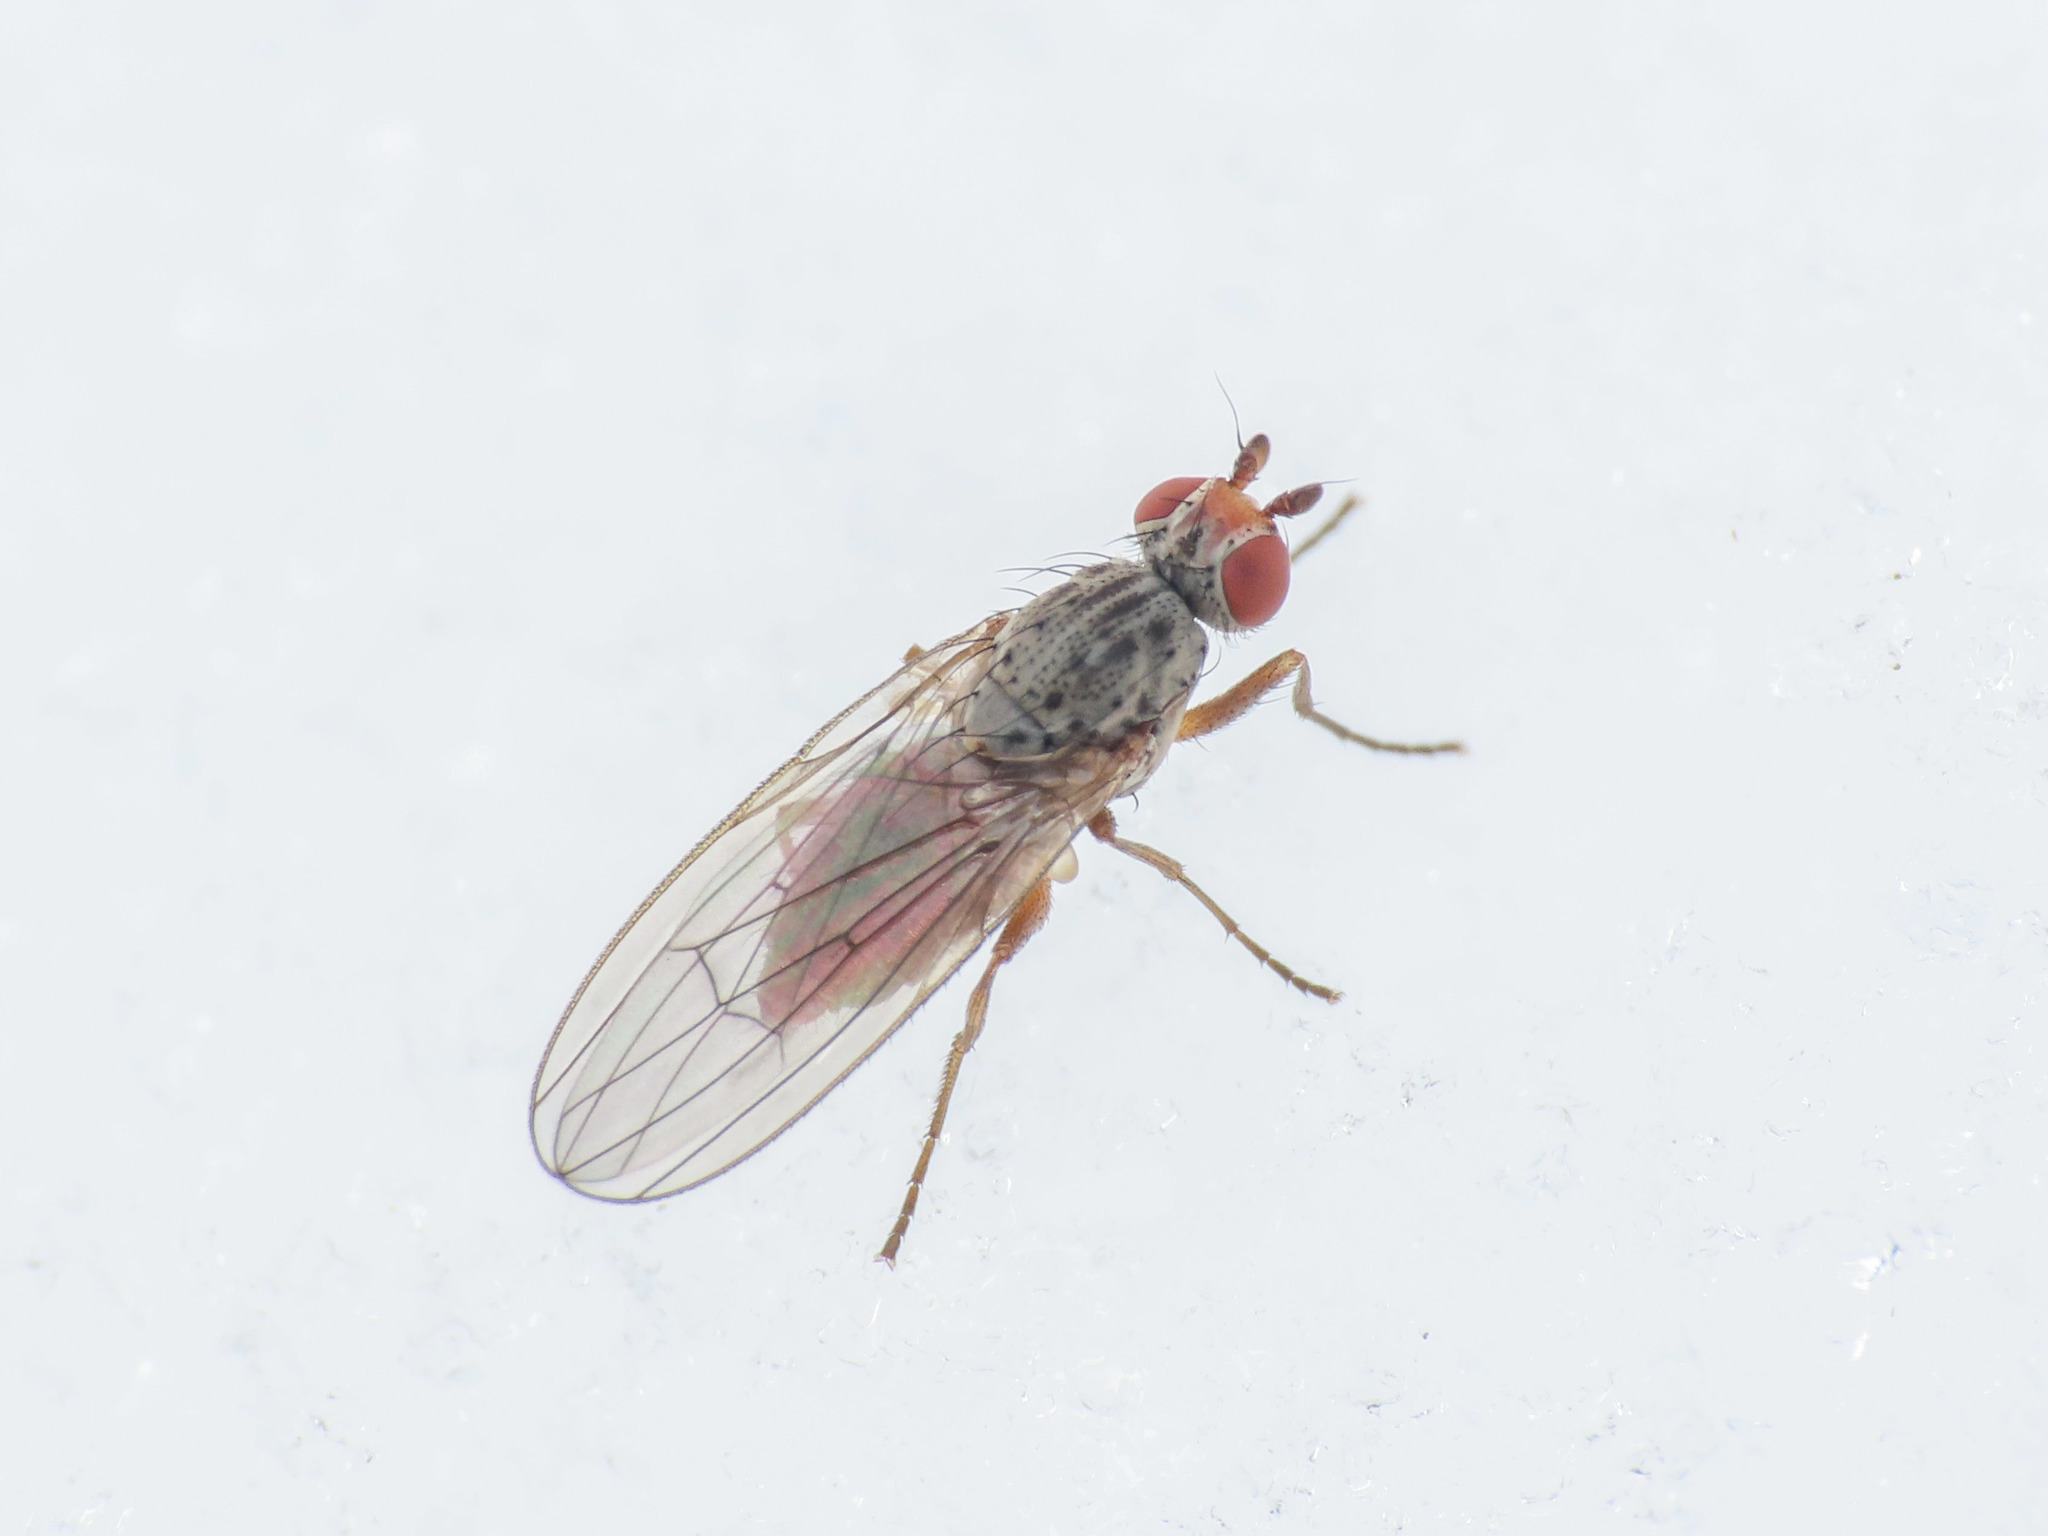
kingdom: Animalia
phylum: Arthropoda
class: Insecta
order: Diptera
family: Heleomyzidae
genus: Tephrochlamys
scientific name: Tephrochlamys rufiventris
